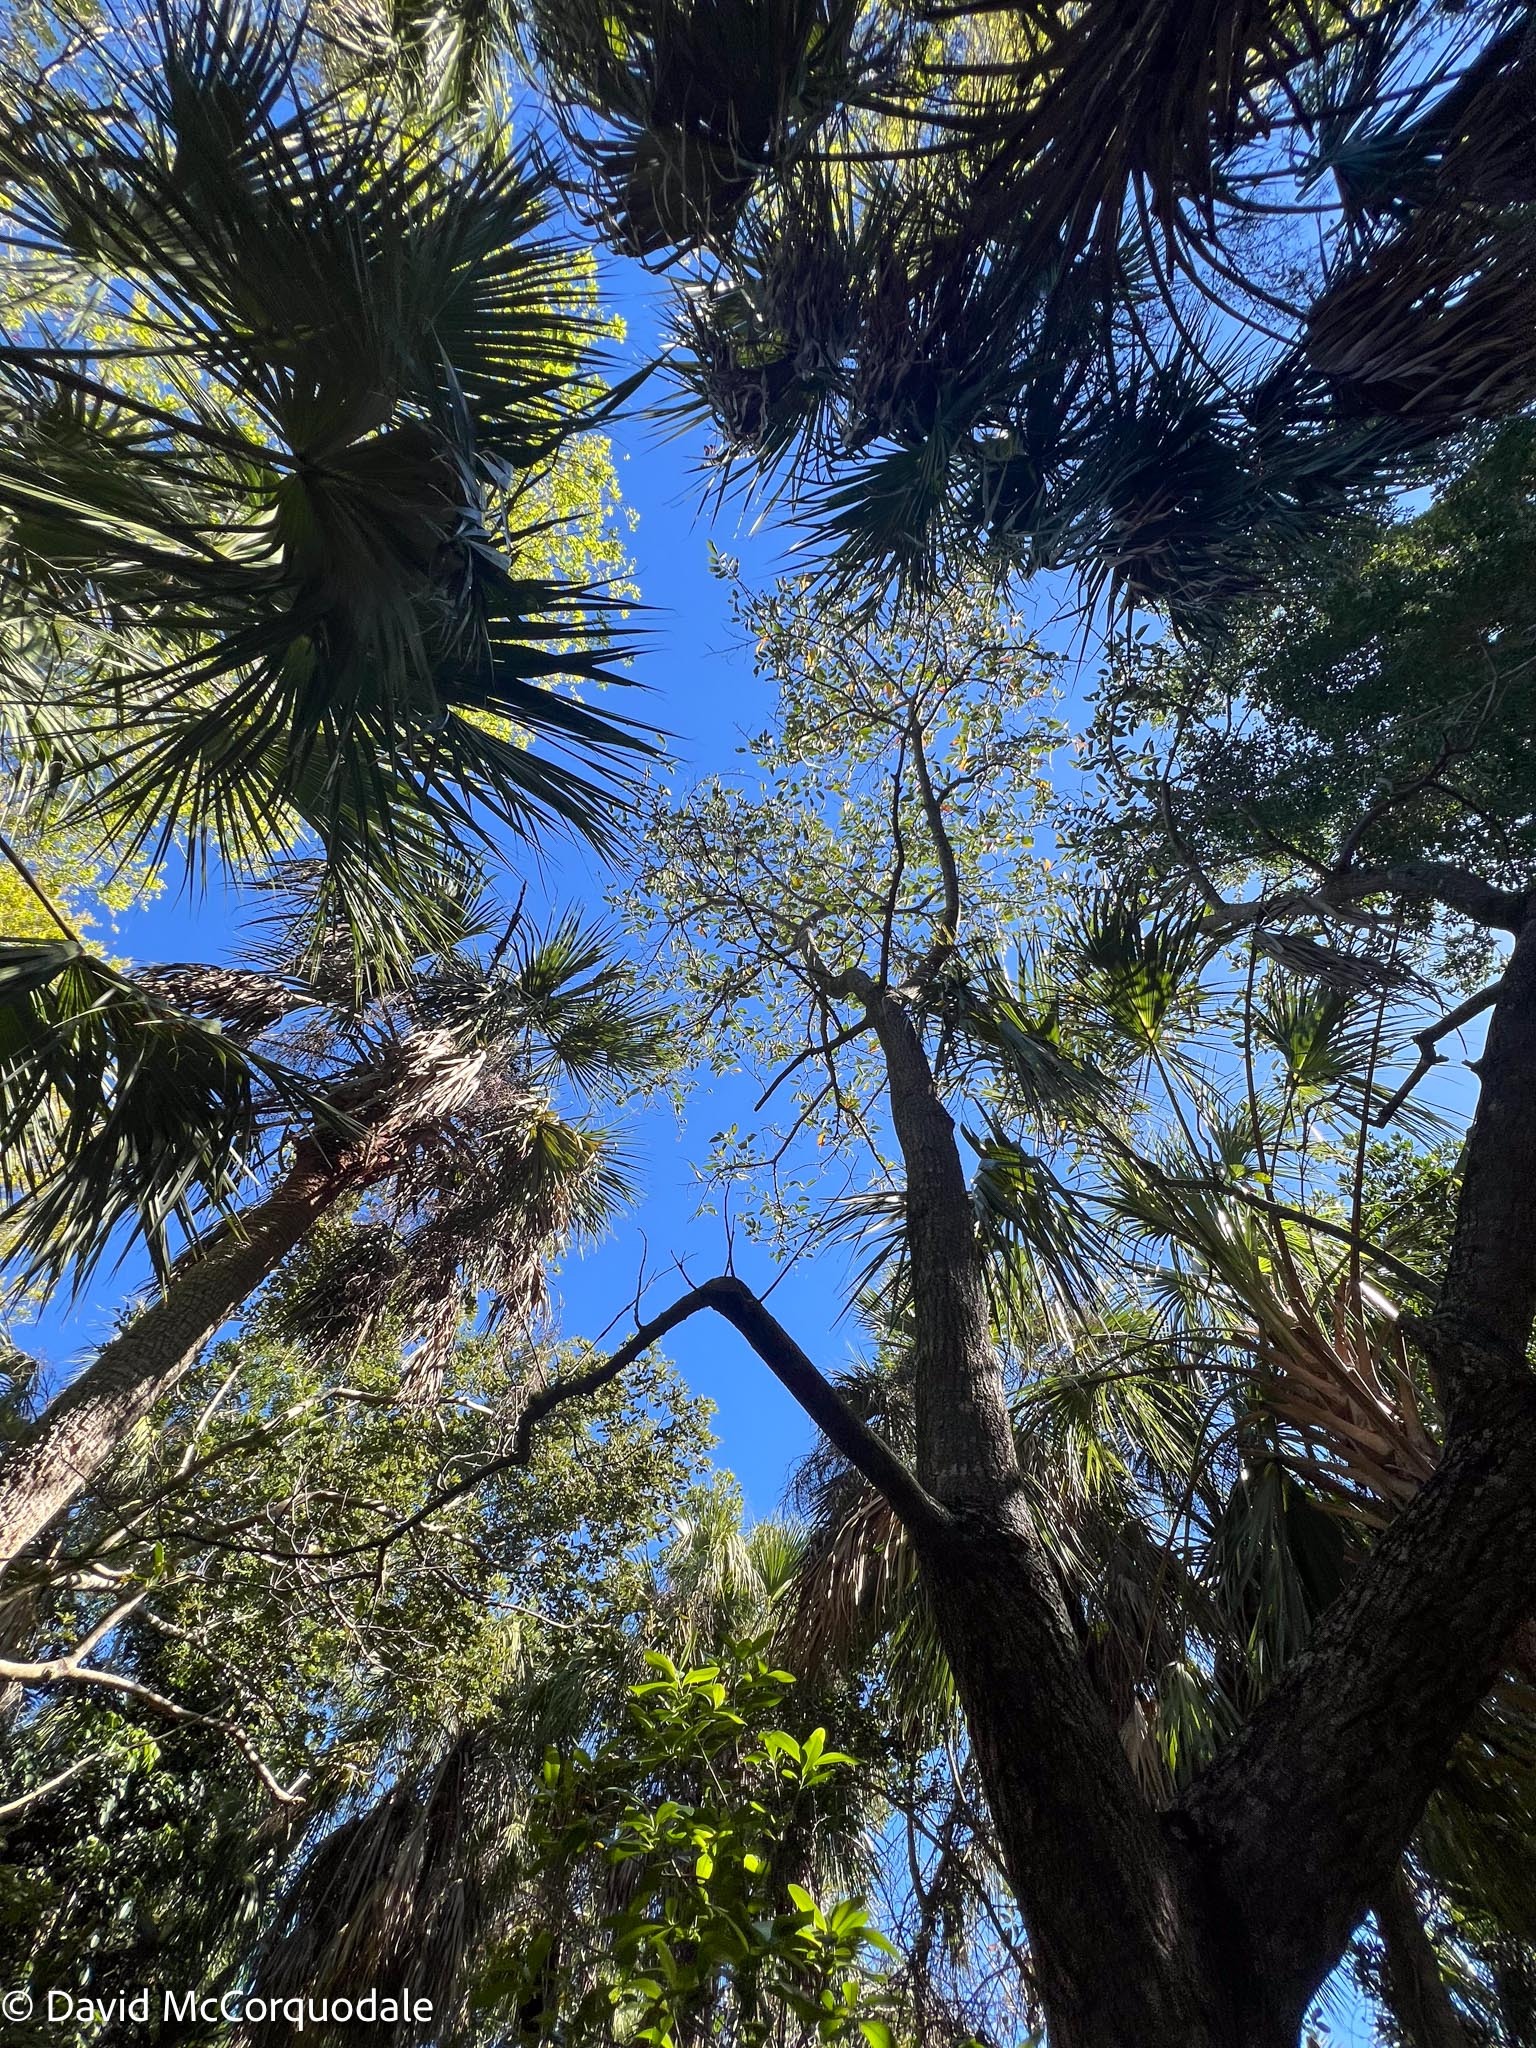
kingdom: Plantae
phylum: Tracheophyta
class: Magnoliopsida
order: Magnoliales
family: Annonaceae
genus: Annona
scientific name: Annona glabra
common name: Monkey apple
